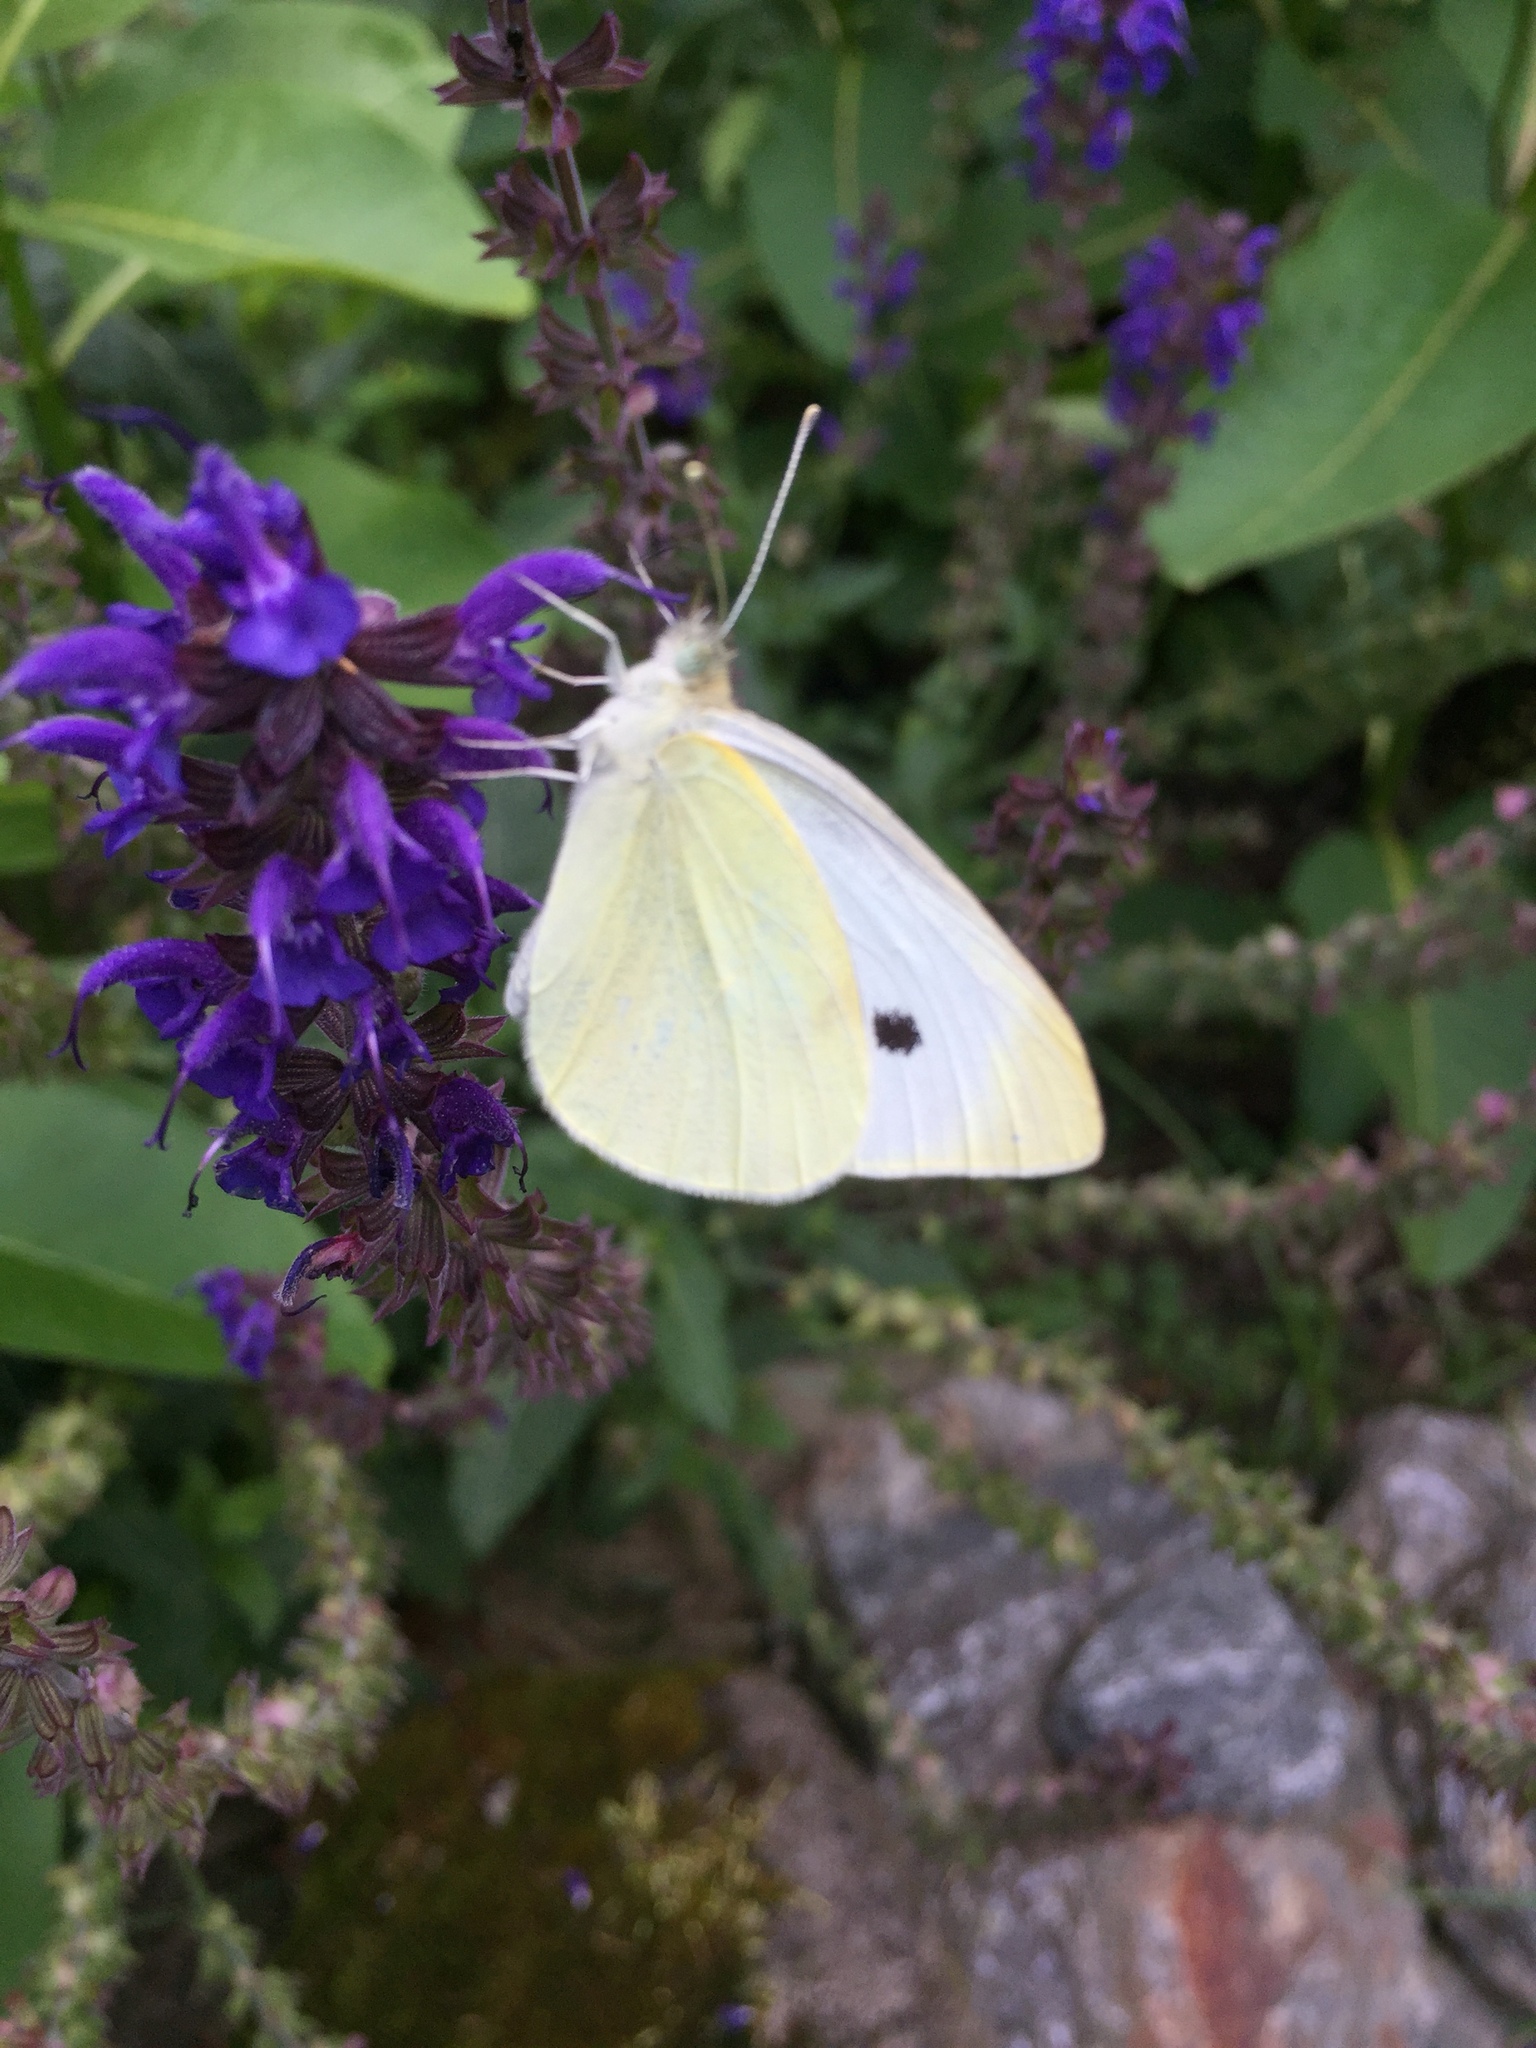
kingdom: Animalia
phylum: Arthropoda
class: Insecta
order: Lepidoptera
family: Pieridae
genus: Pieris
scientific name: Pieris rapae
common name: Small white
